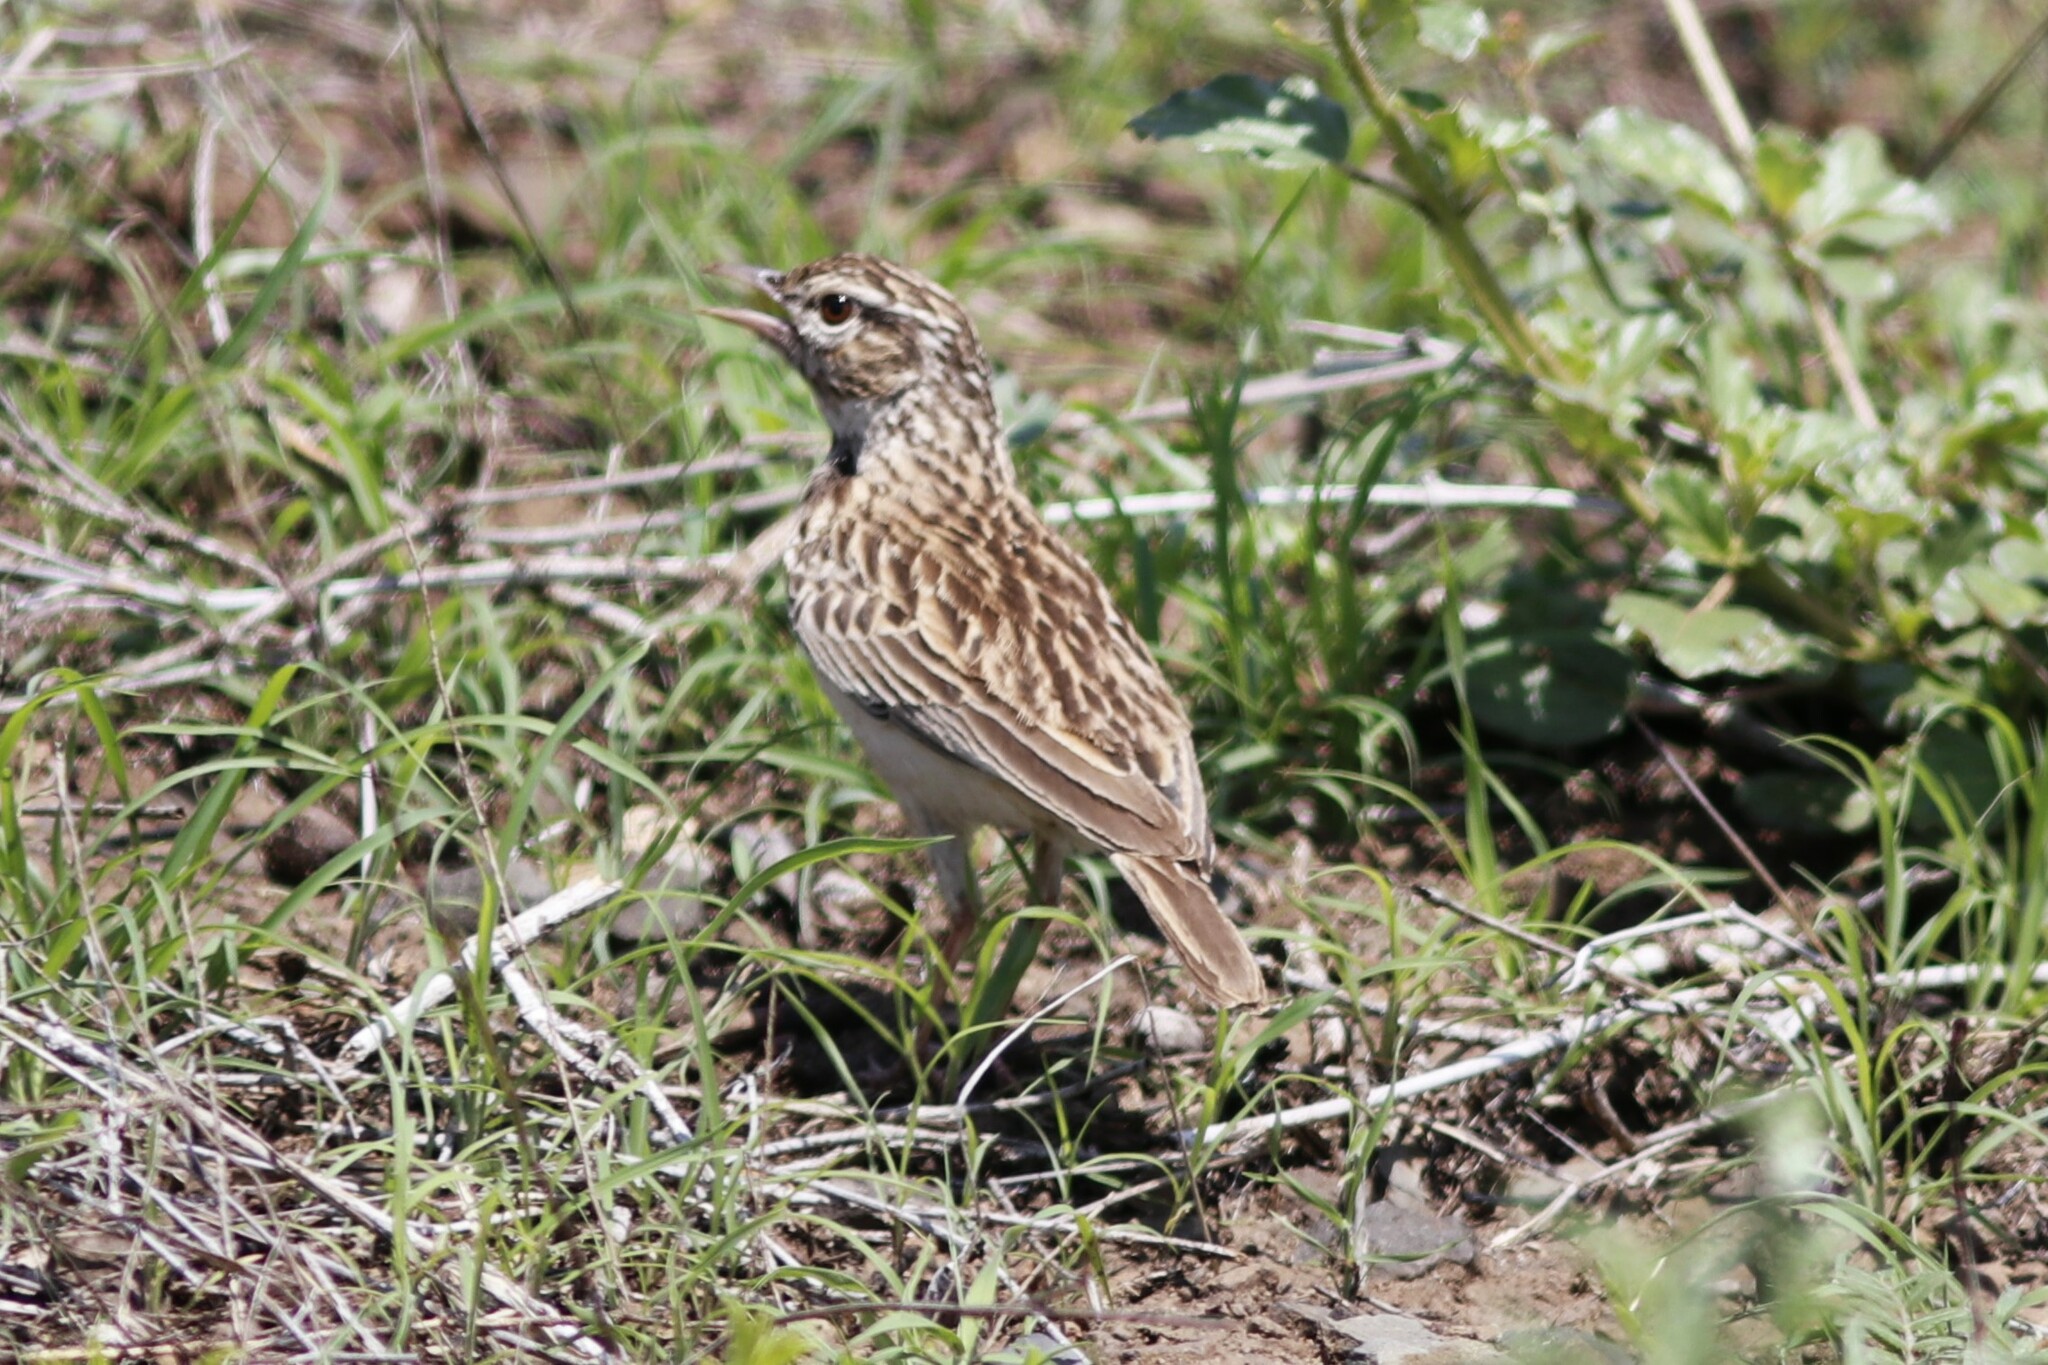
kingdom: Animalia
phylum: Chordata
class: Aves
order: Passeriformes
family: Alaudidae
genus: Calendulauda
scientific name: Calendulauda sabota
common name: Sabota lark
